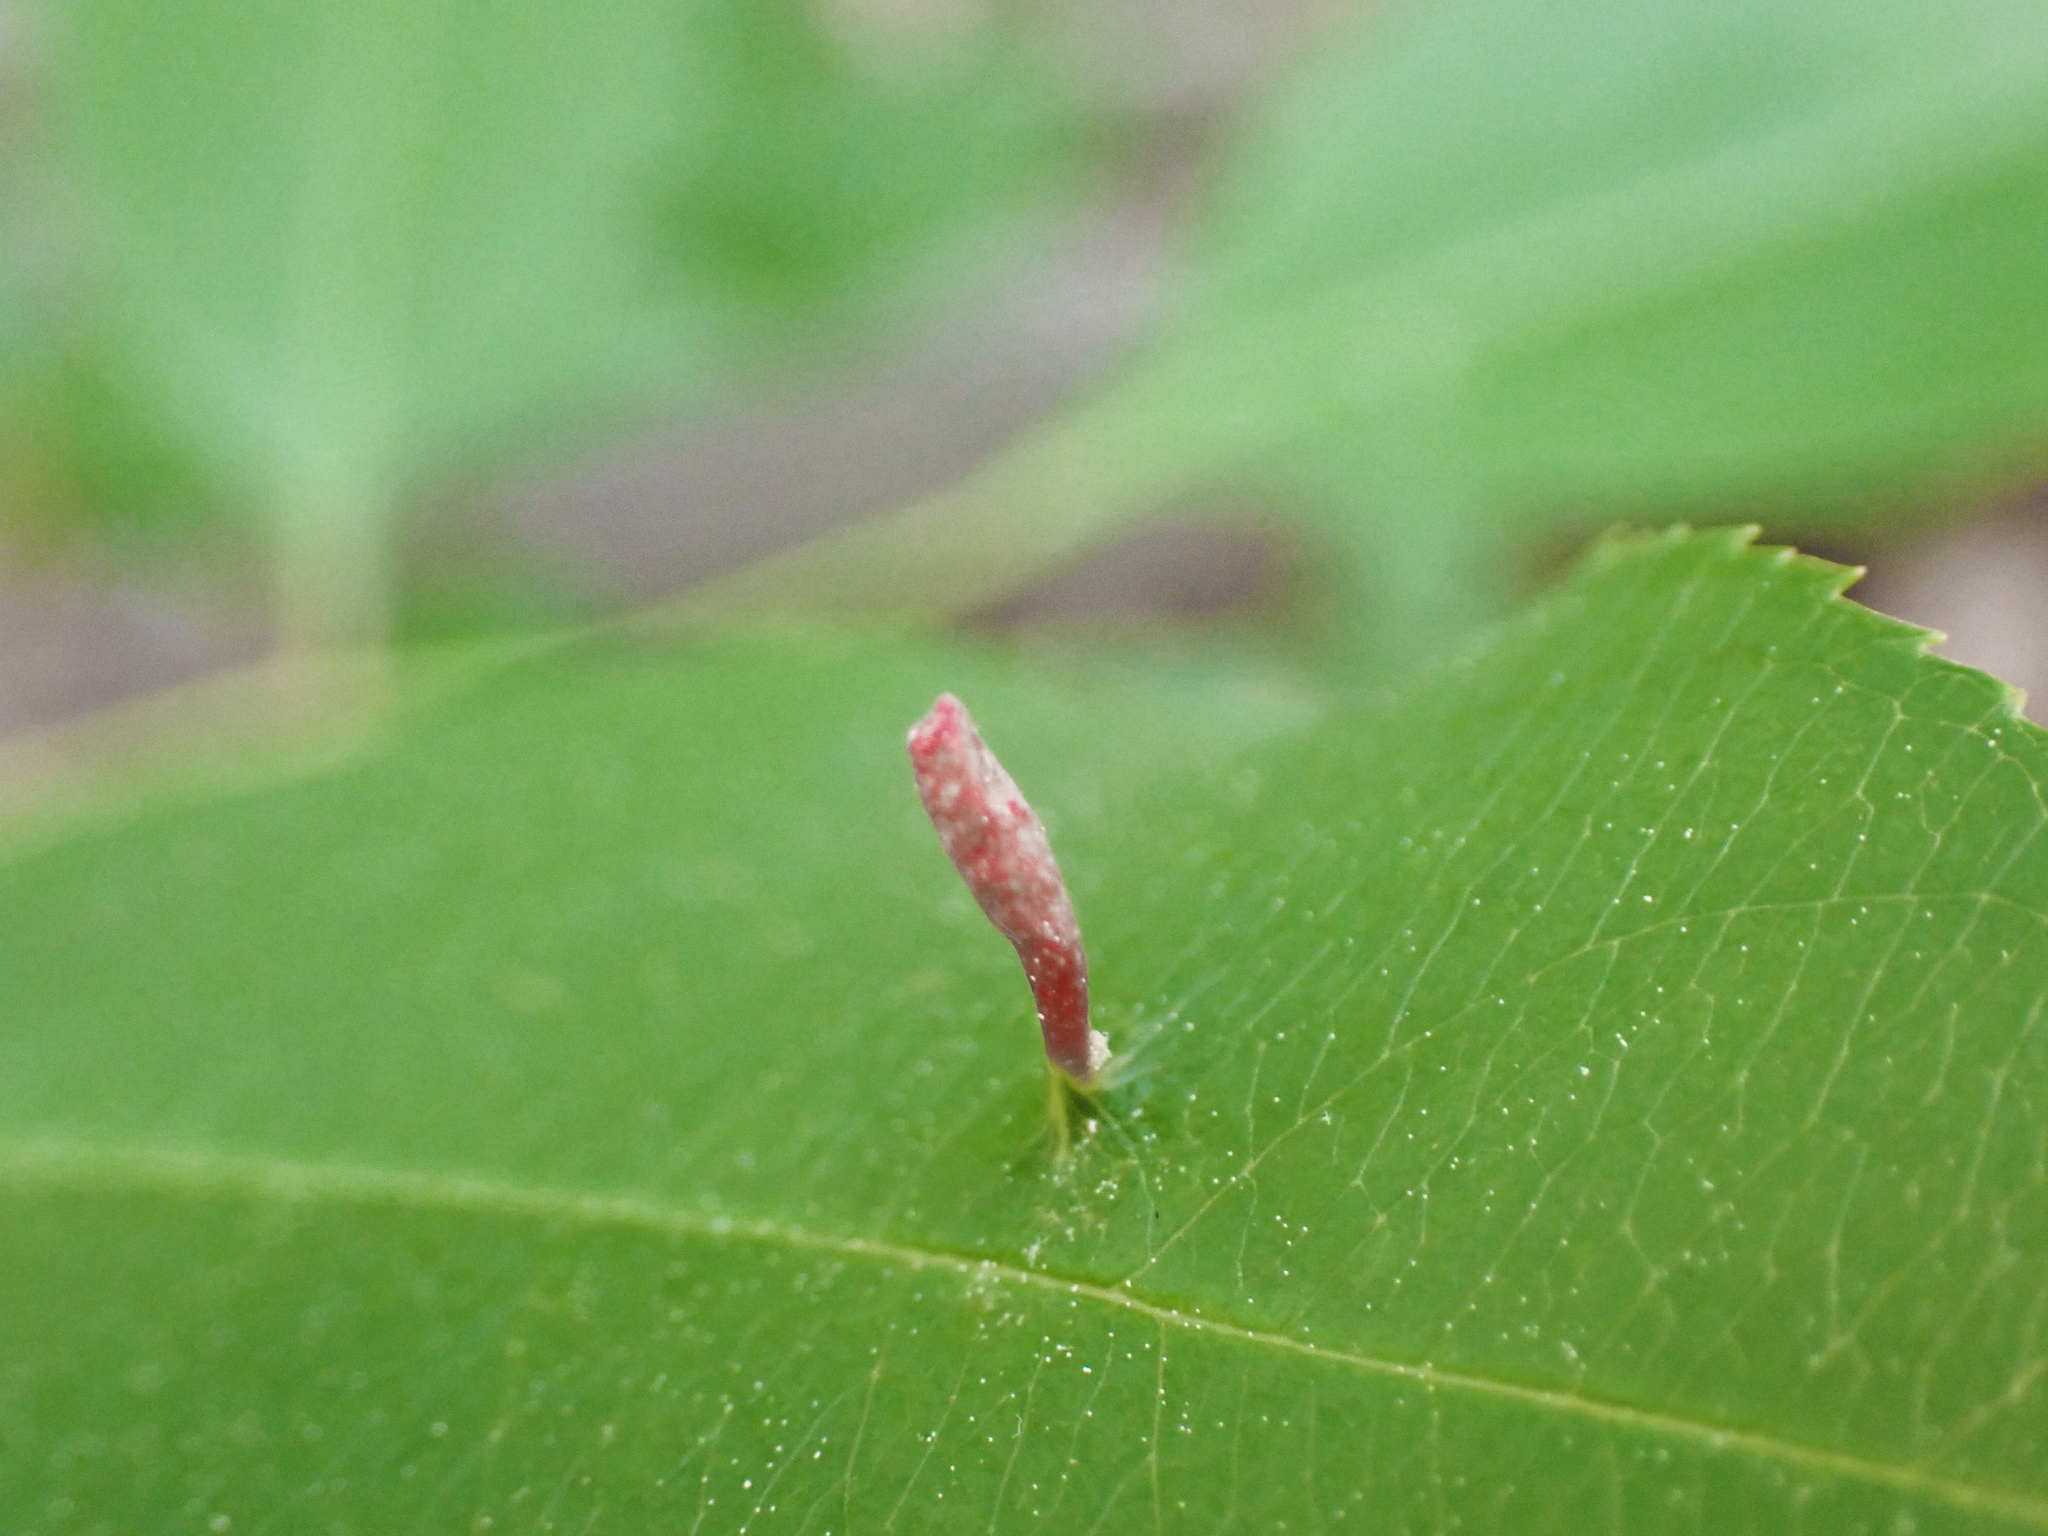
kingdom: Animalia
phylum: Arthropoda
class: Arachnida
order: Trombidiformes
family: Eriophyidae
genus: Eriophyes
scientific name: Eriophyes
